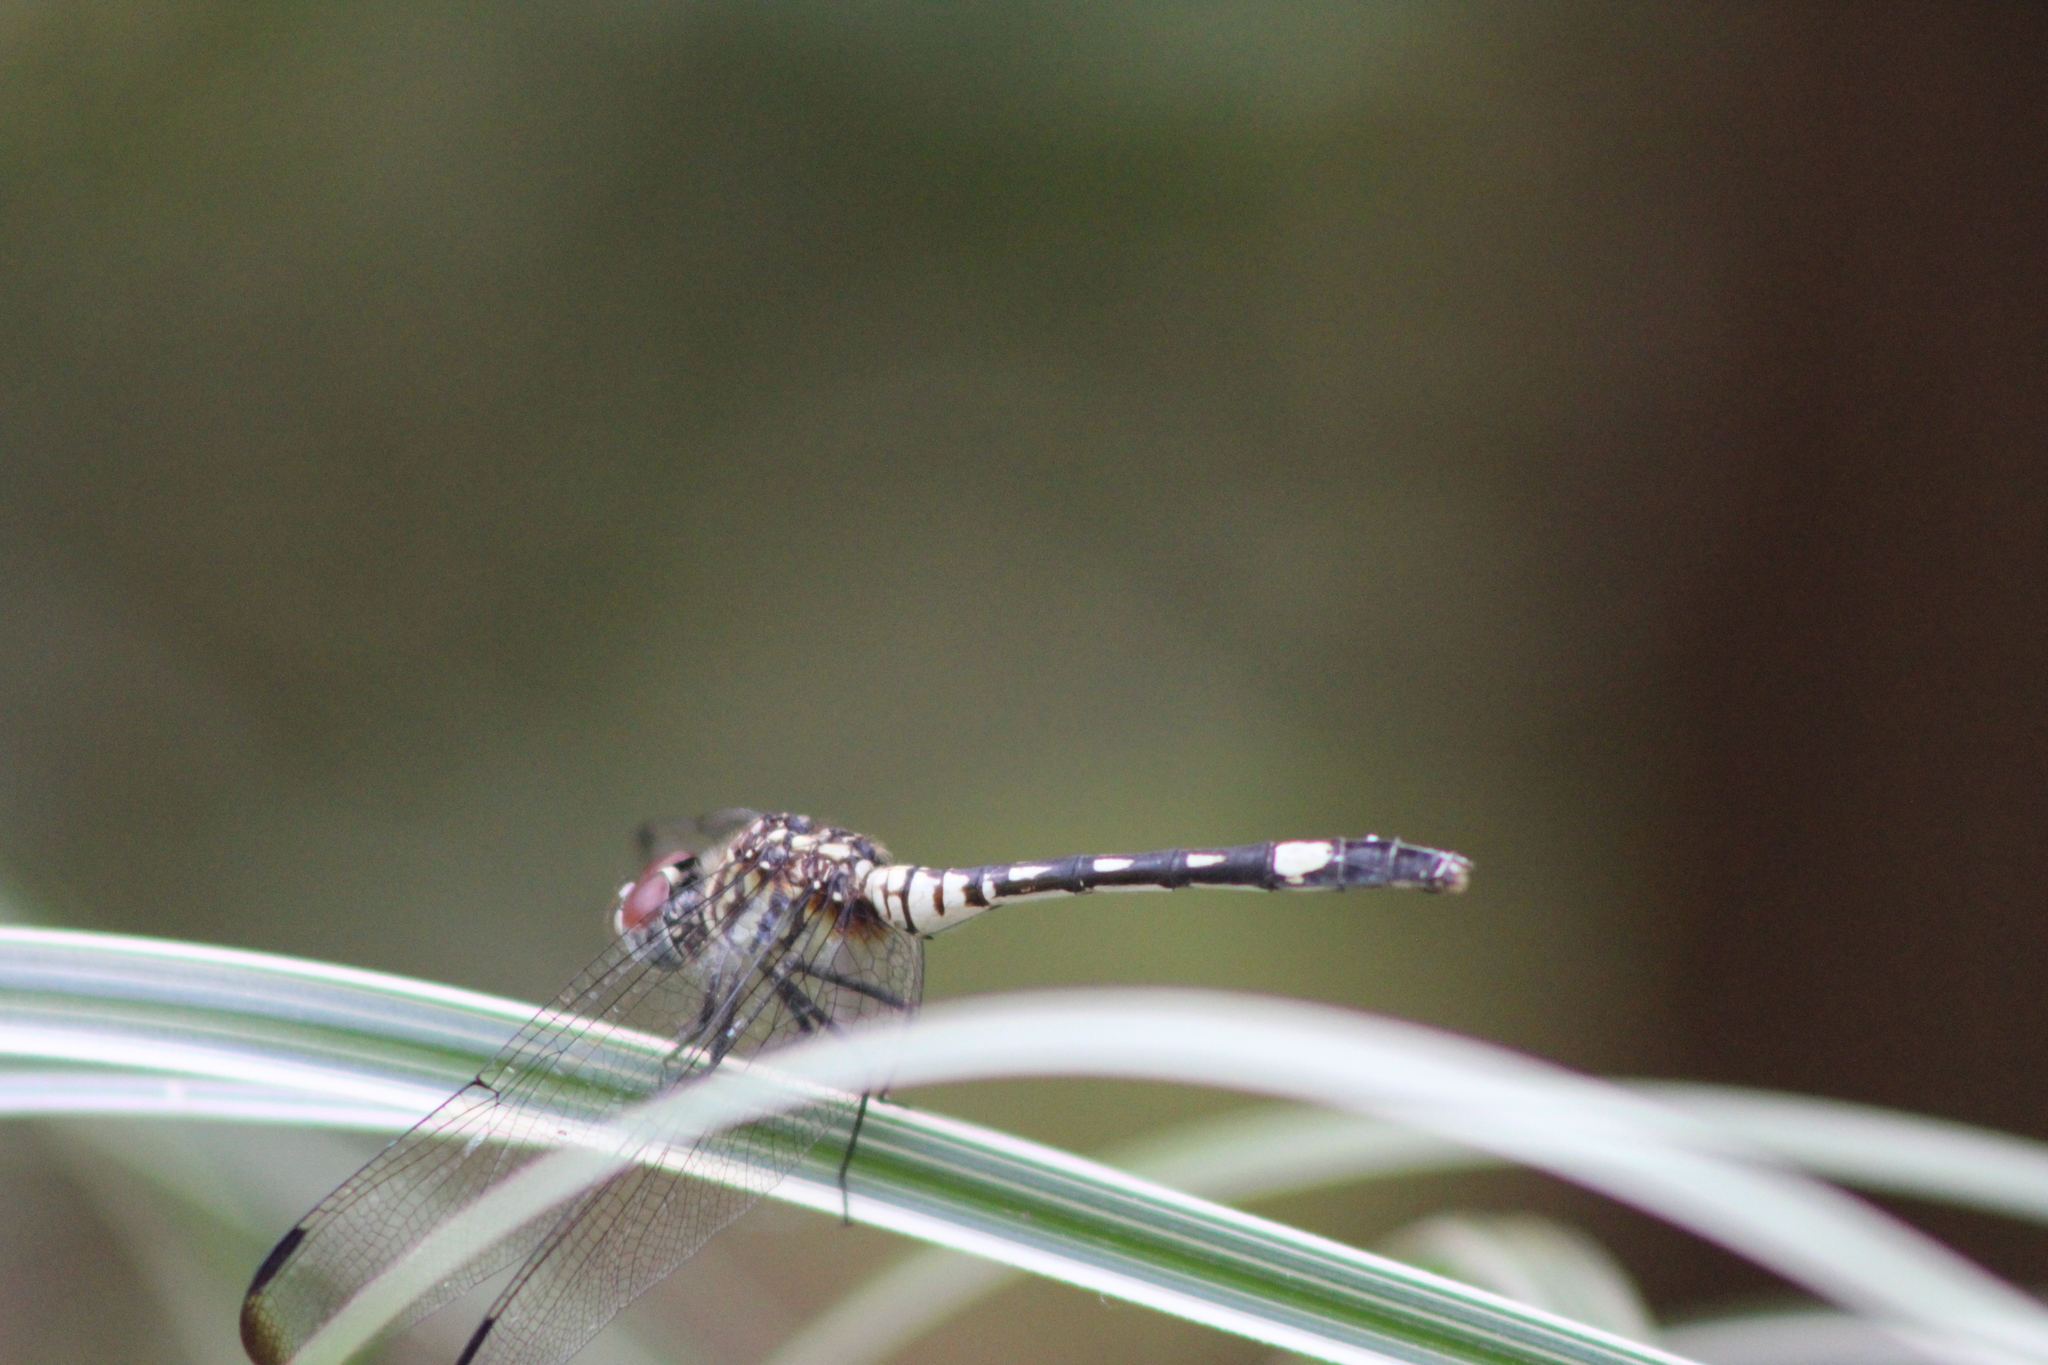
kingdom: Animalia
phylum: Arthropoda
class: Insecta
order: Odonata
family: Libellulidae
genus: Dythemis
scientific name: Dythemis velox
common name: Swift setwing
